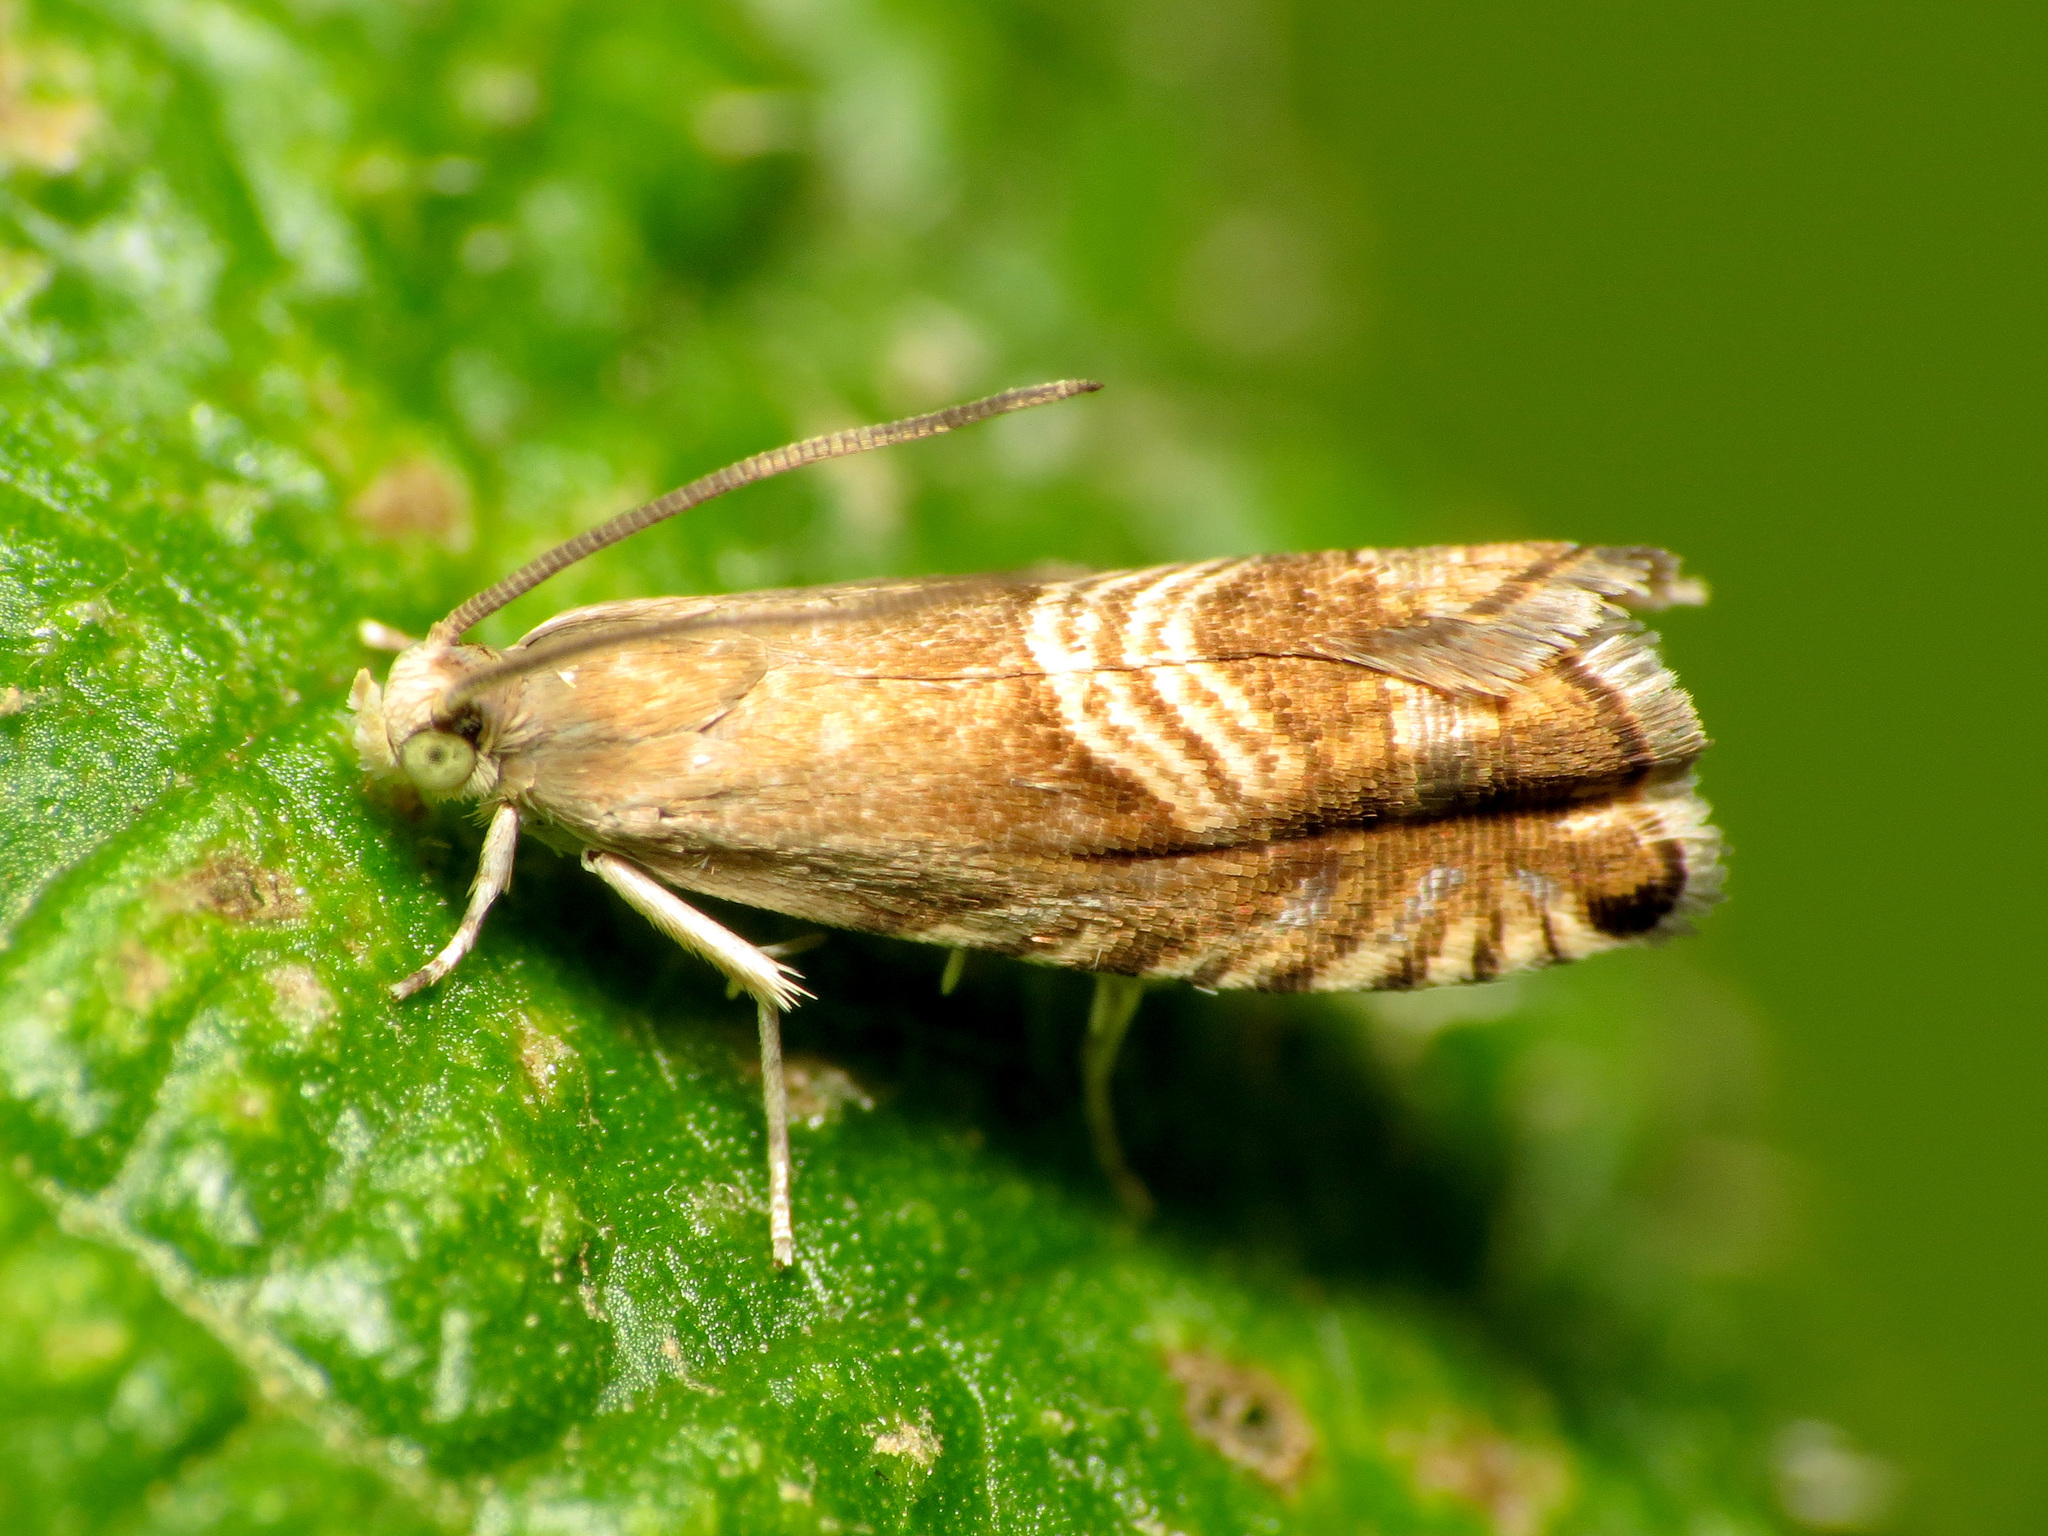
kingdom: Animalia
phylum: Arthropoda
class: Insecta
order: Lepidoptera
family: Tortricidae
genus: Grapholita
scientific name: Grapholita tristrigana
